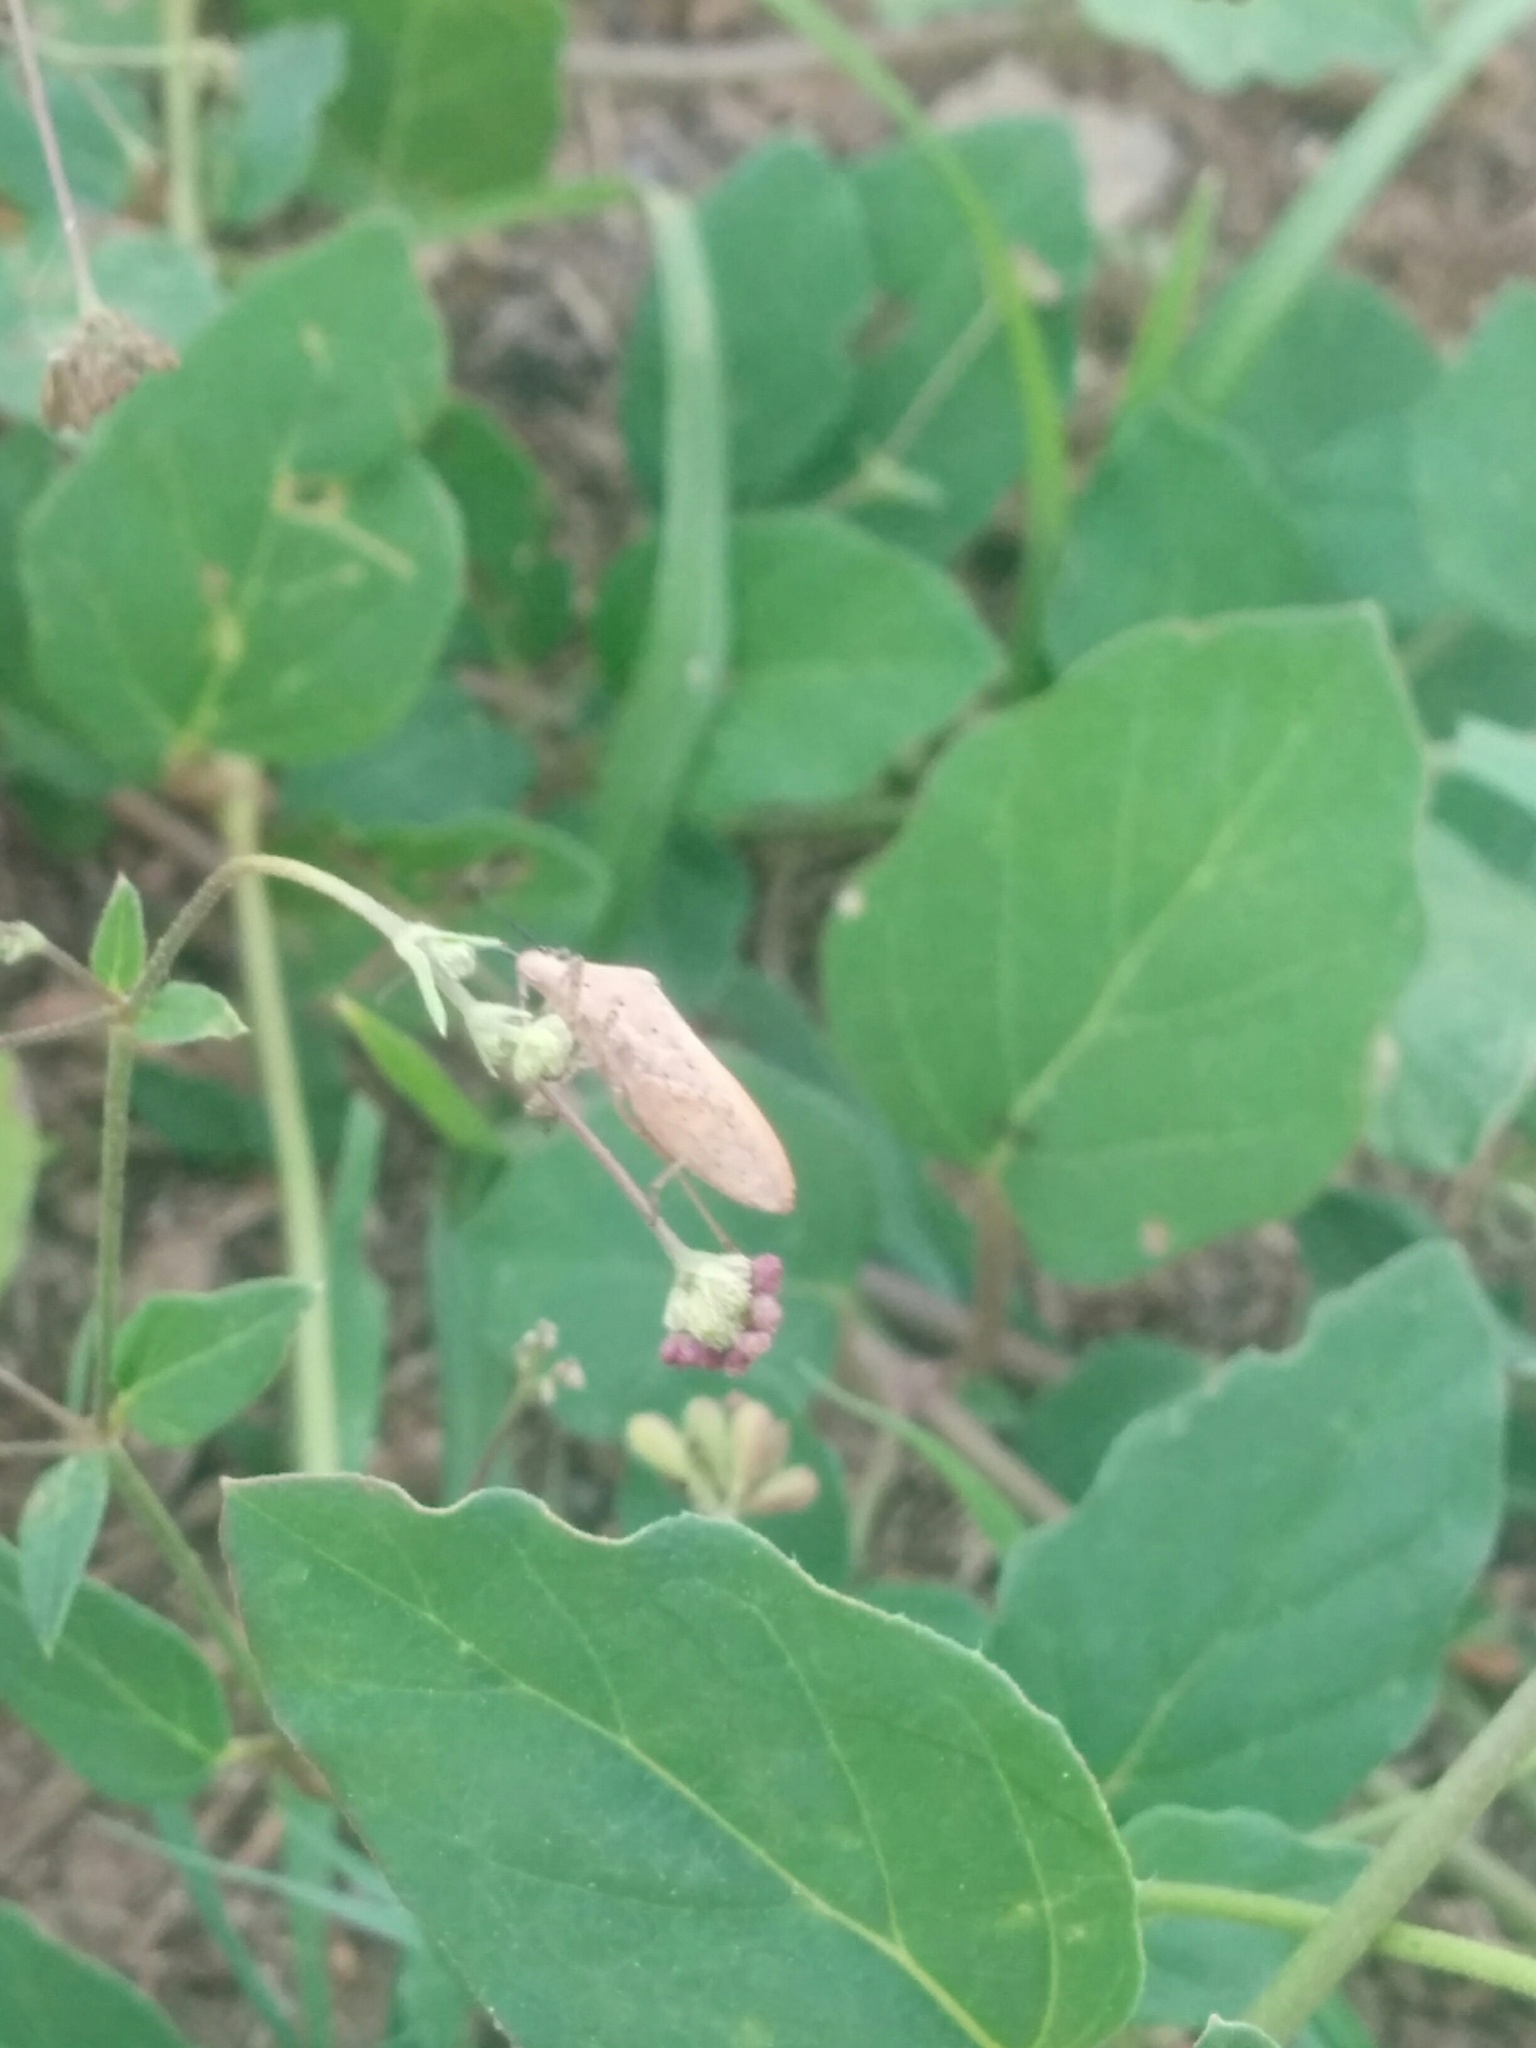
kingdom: Animalia
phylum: Arthropoda
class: Insecta
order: Hemiptera
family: Coreidae
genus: Catorhintha
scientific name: Catorhintha selector
